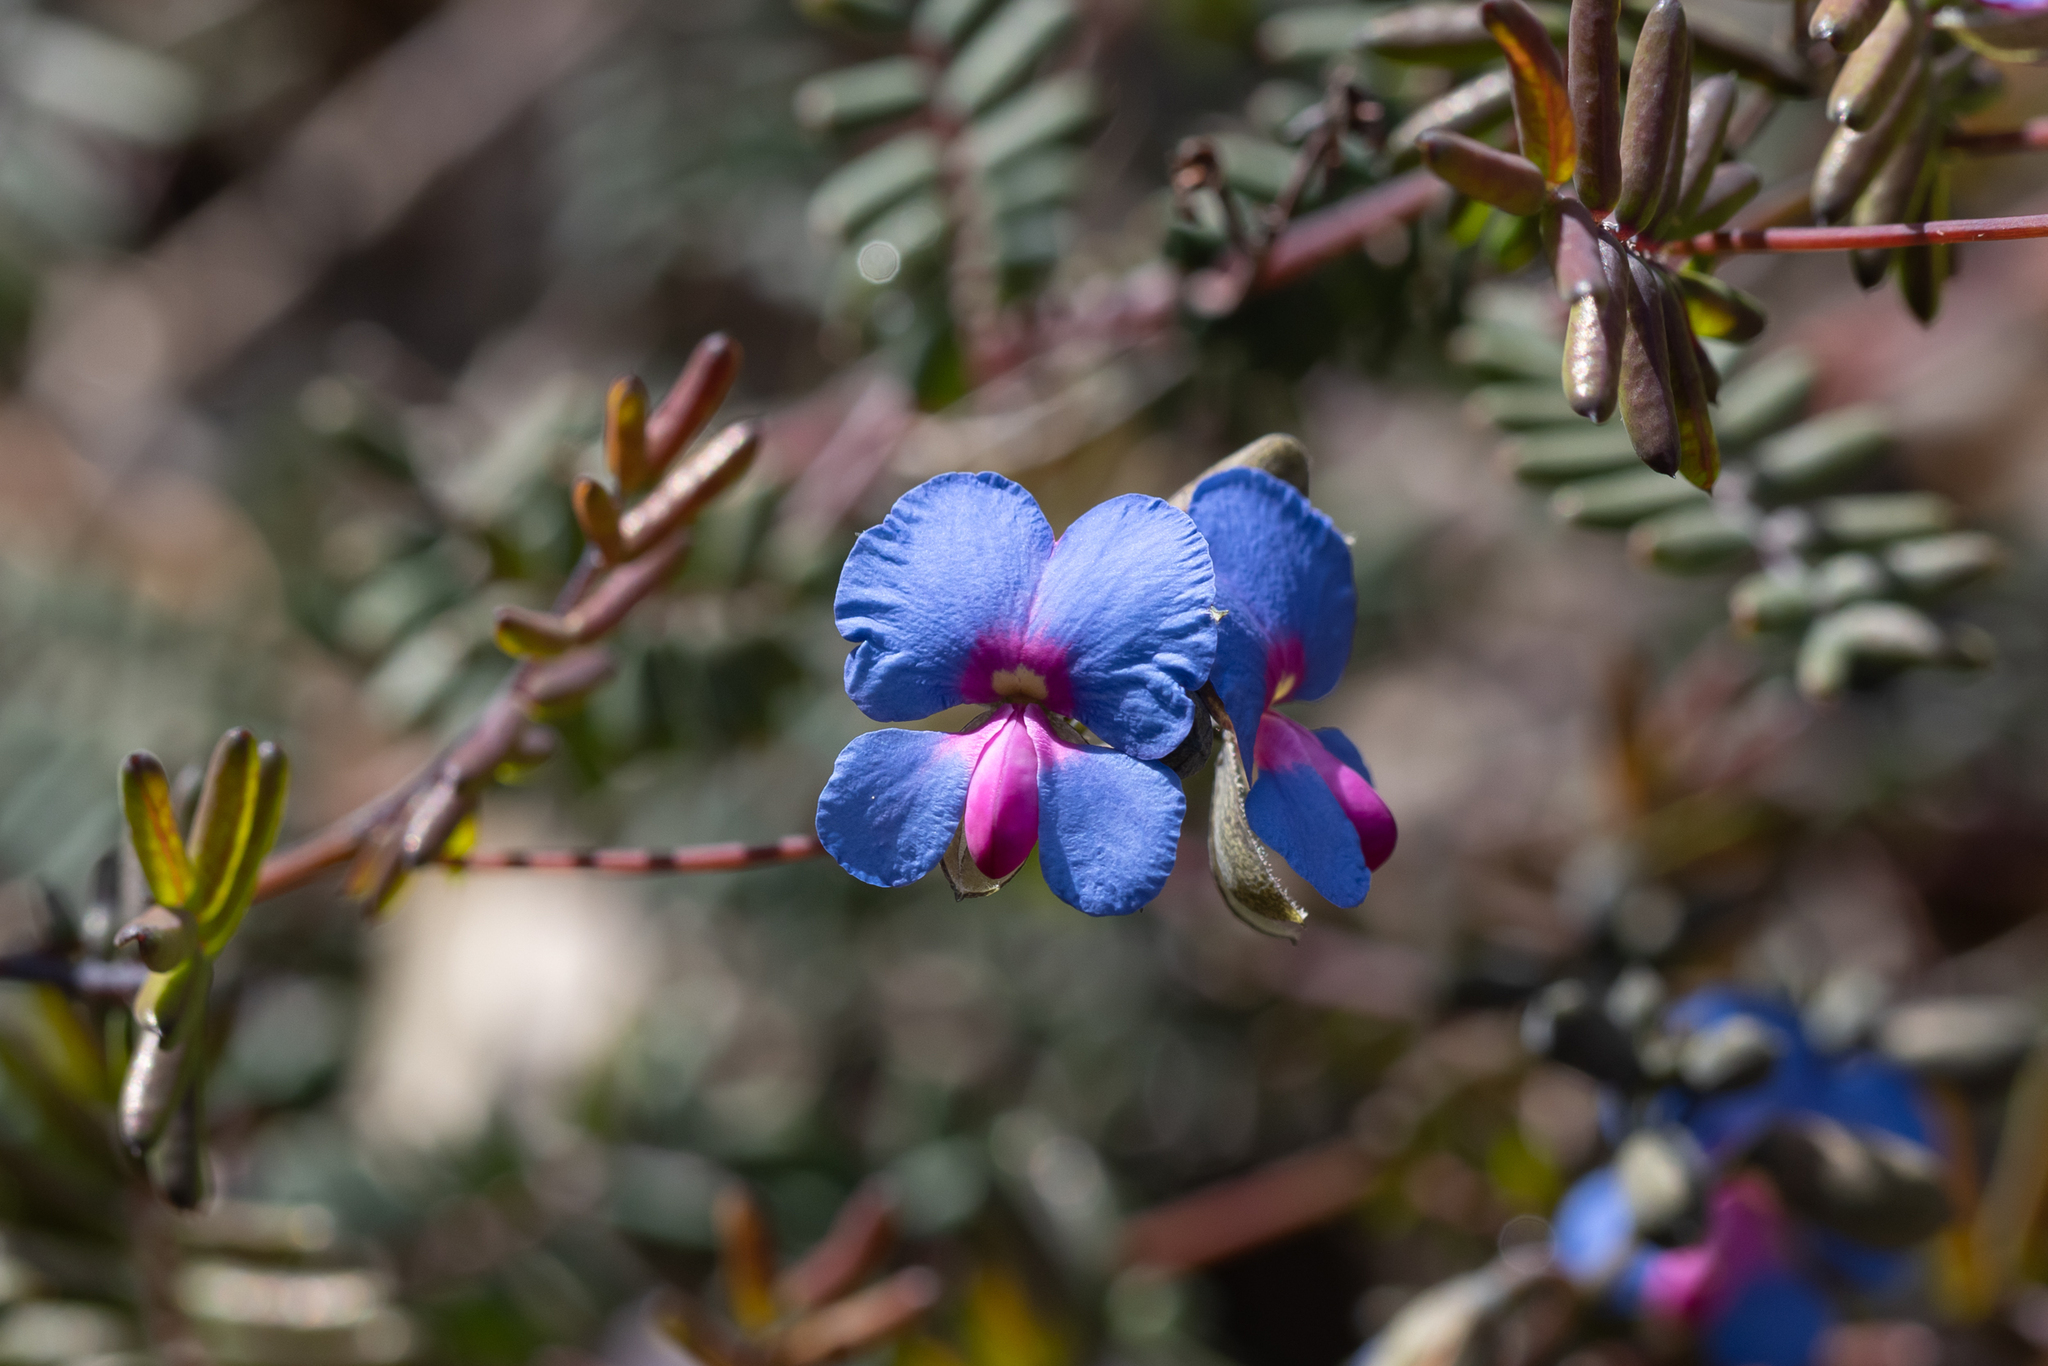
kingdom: Plantae
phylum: Tracheophyta
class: Magnoliopsida
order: Fabales
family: Fabaceae
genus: Gompholobium
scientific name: Gompholobium cyaninum
